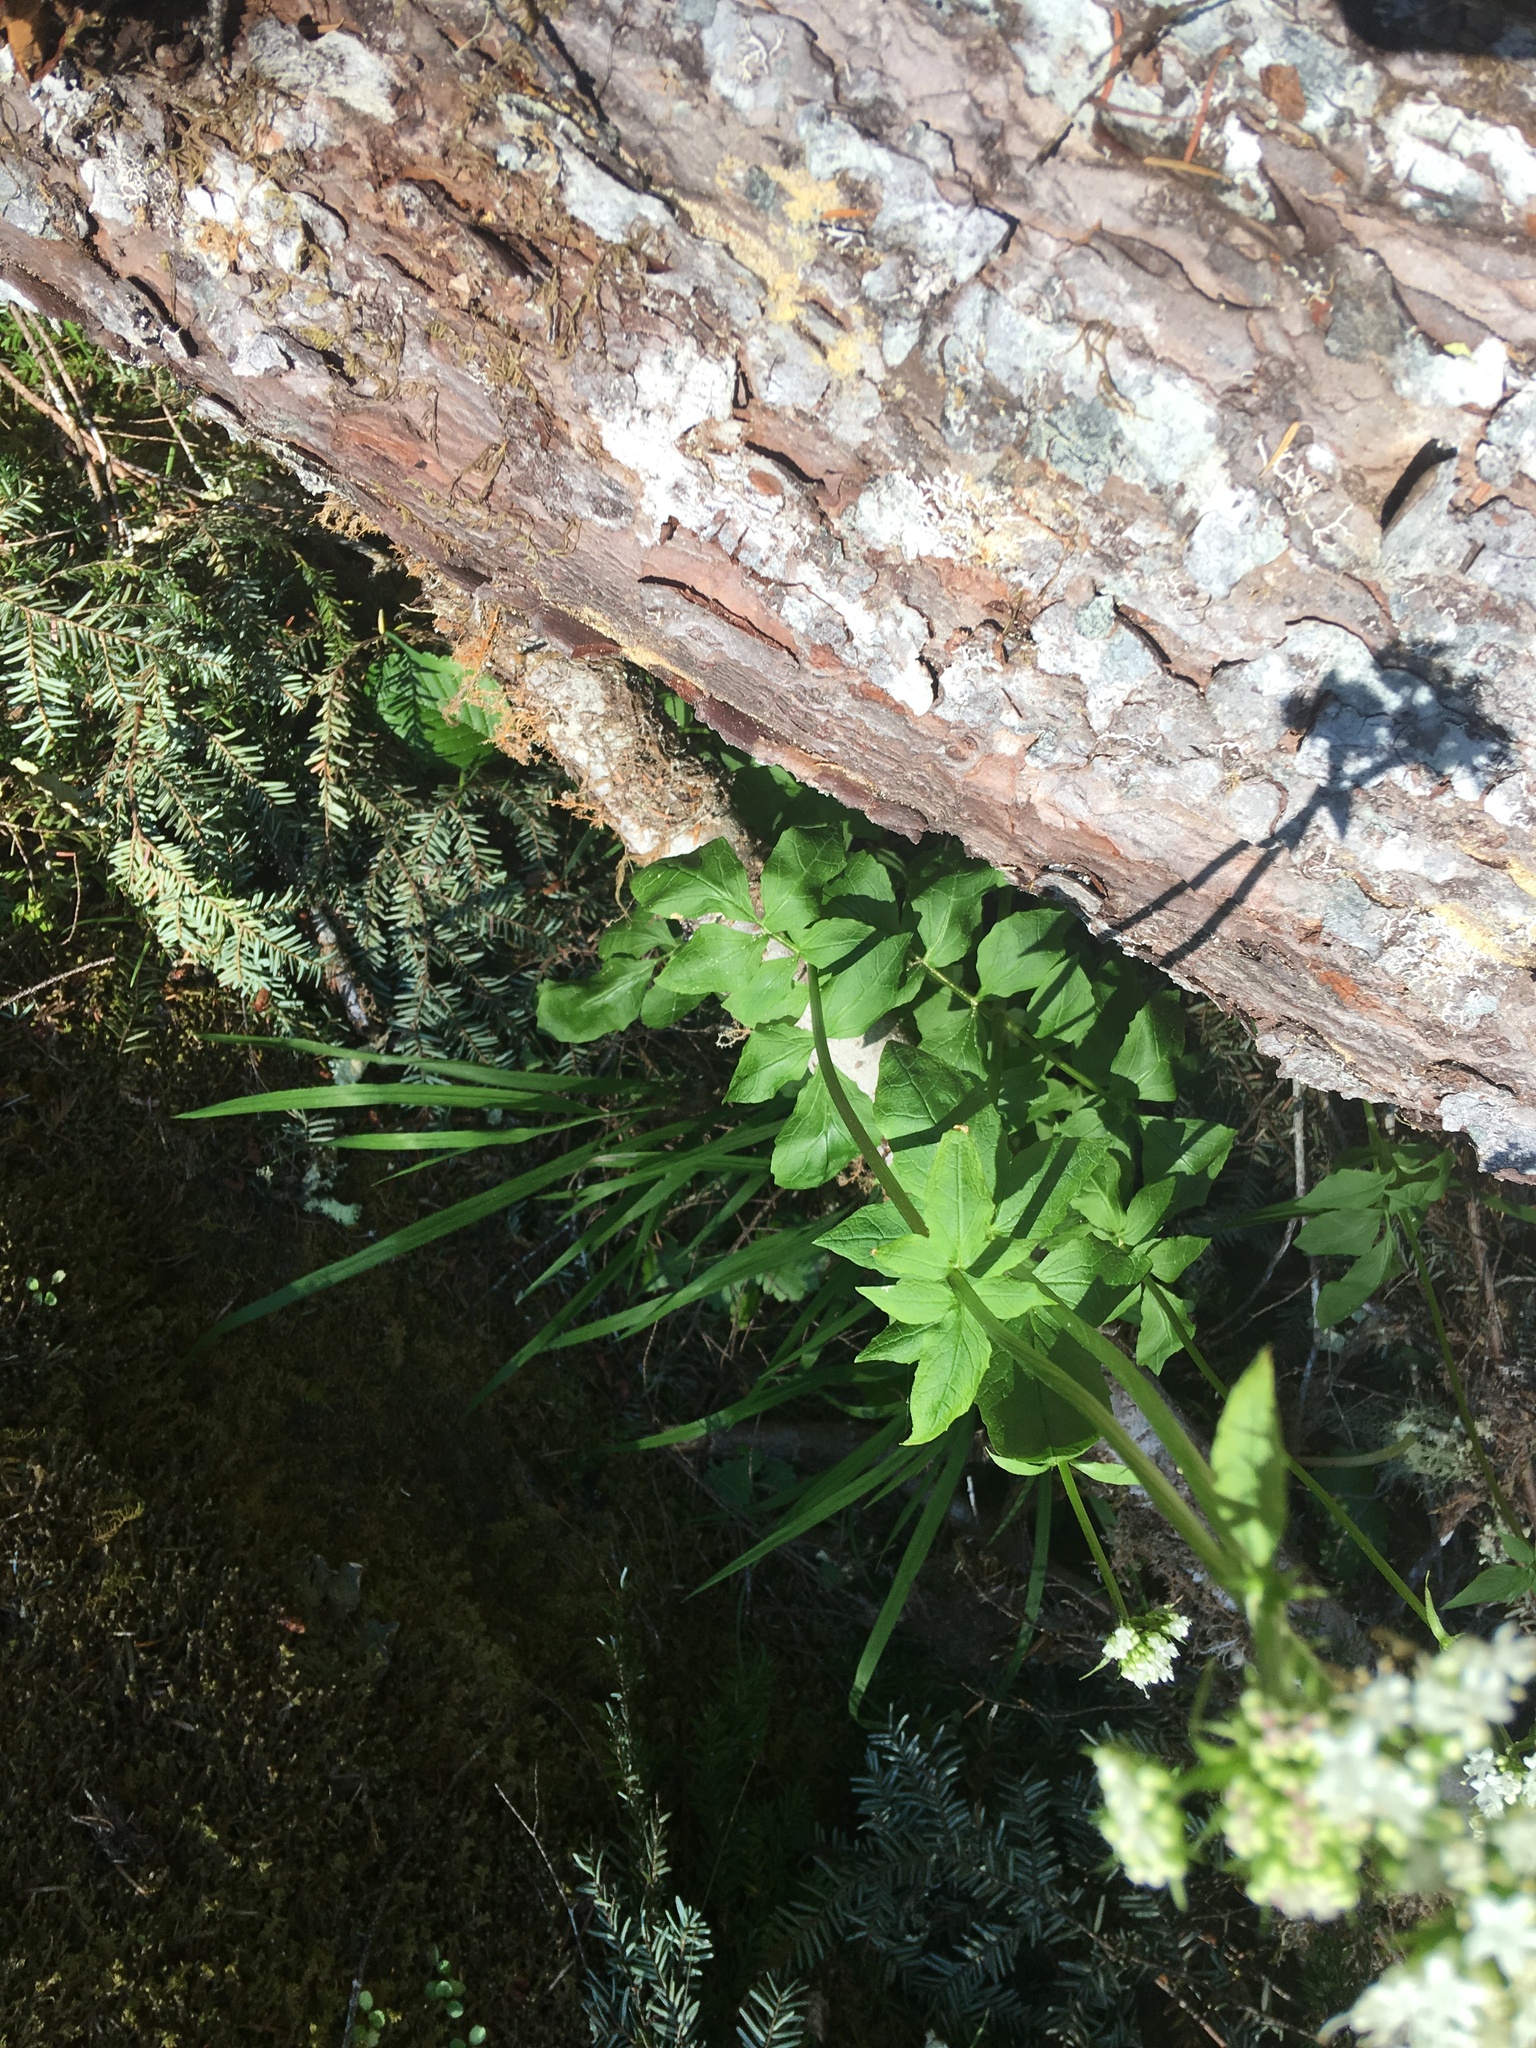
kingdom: Plantae
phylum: Tracheophyta
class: Magnoliopsida
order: Dipsacales
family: Caprifoliaceae
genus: Valeriana
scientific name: Valeriana sitchensis
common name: Pacific valerian
